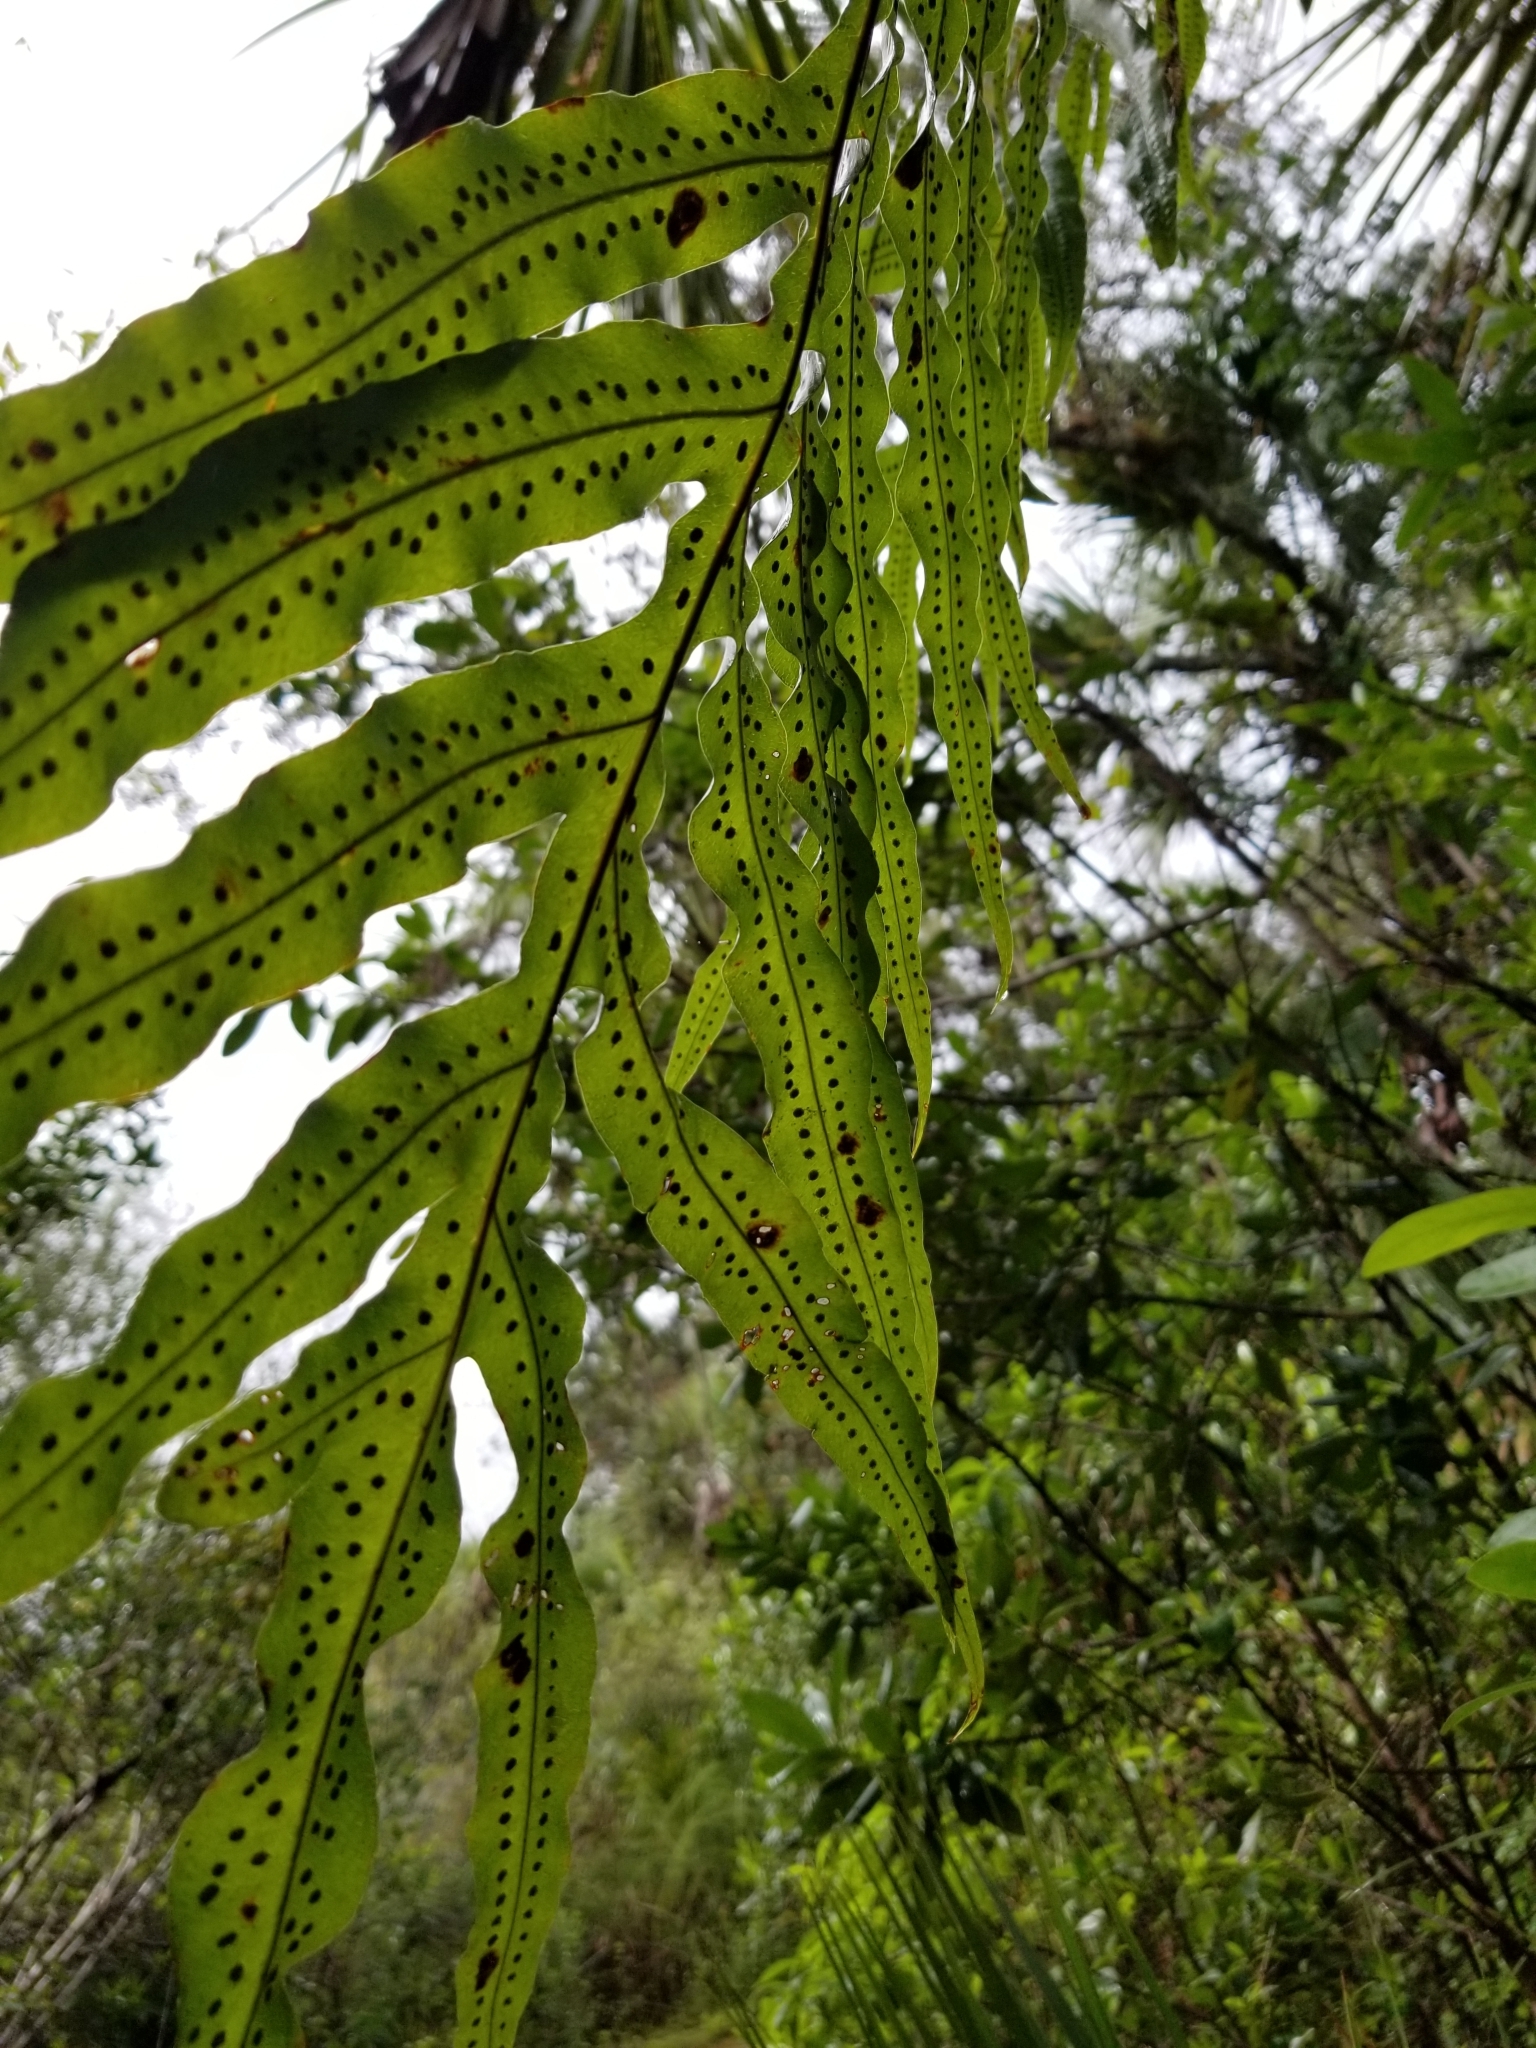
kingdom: Plantae
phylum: Tracheophyta
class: Polypodiopsida
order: Polypodiales
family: Polypodiaceae
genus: Phlebodium
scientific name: Phlebodium aureum
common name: Gold-foot fern
